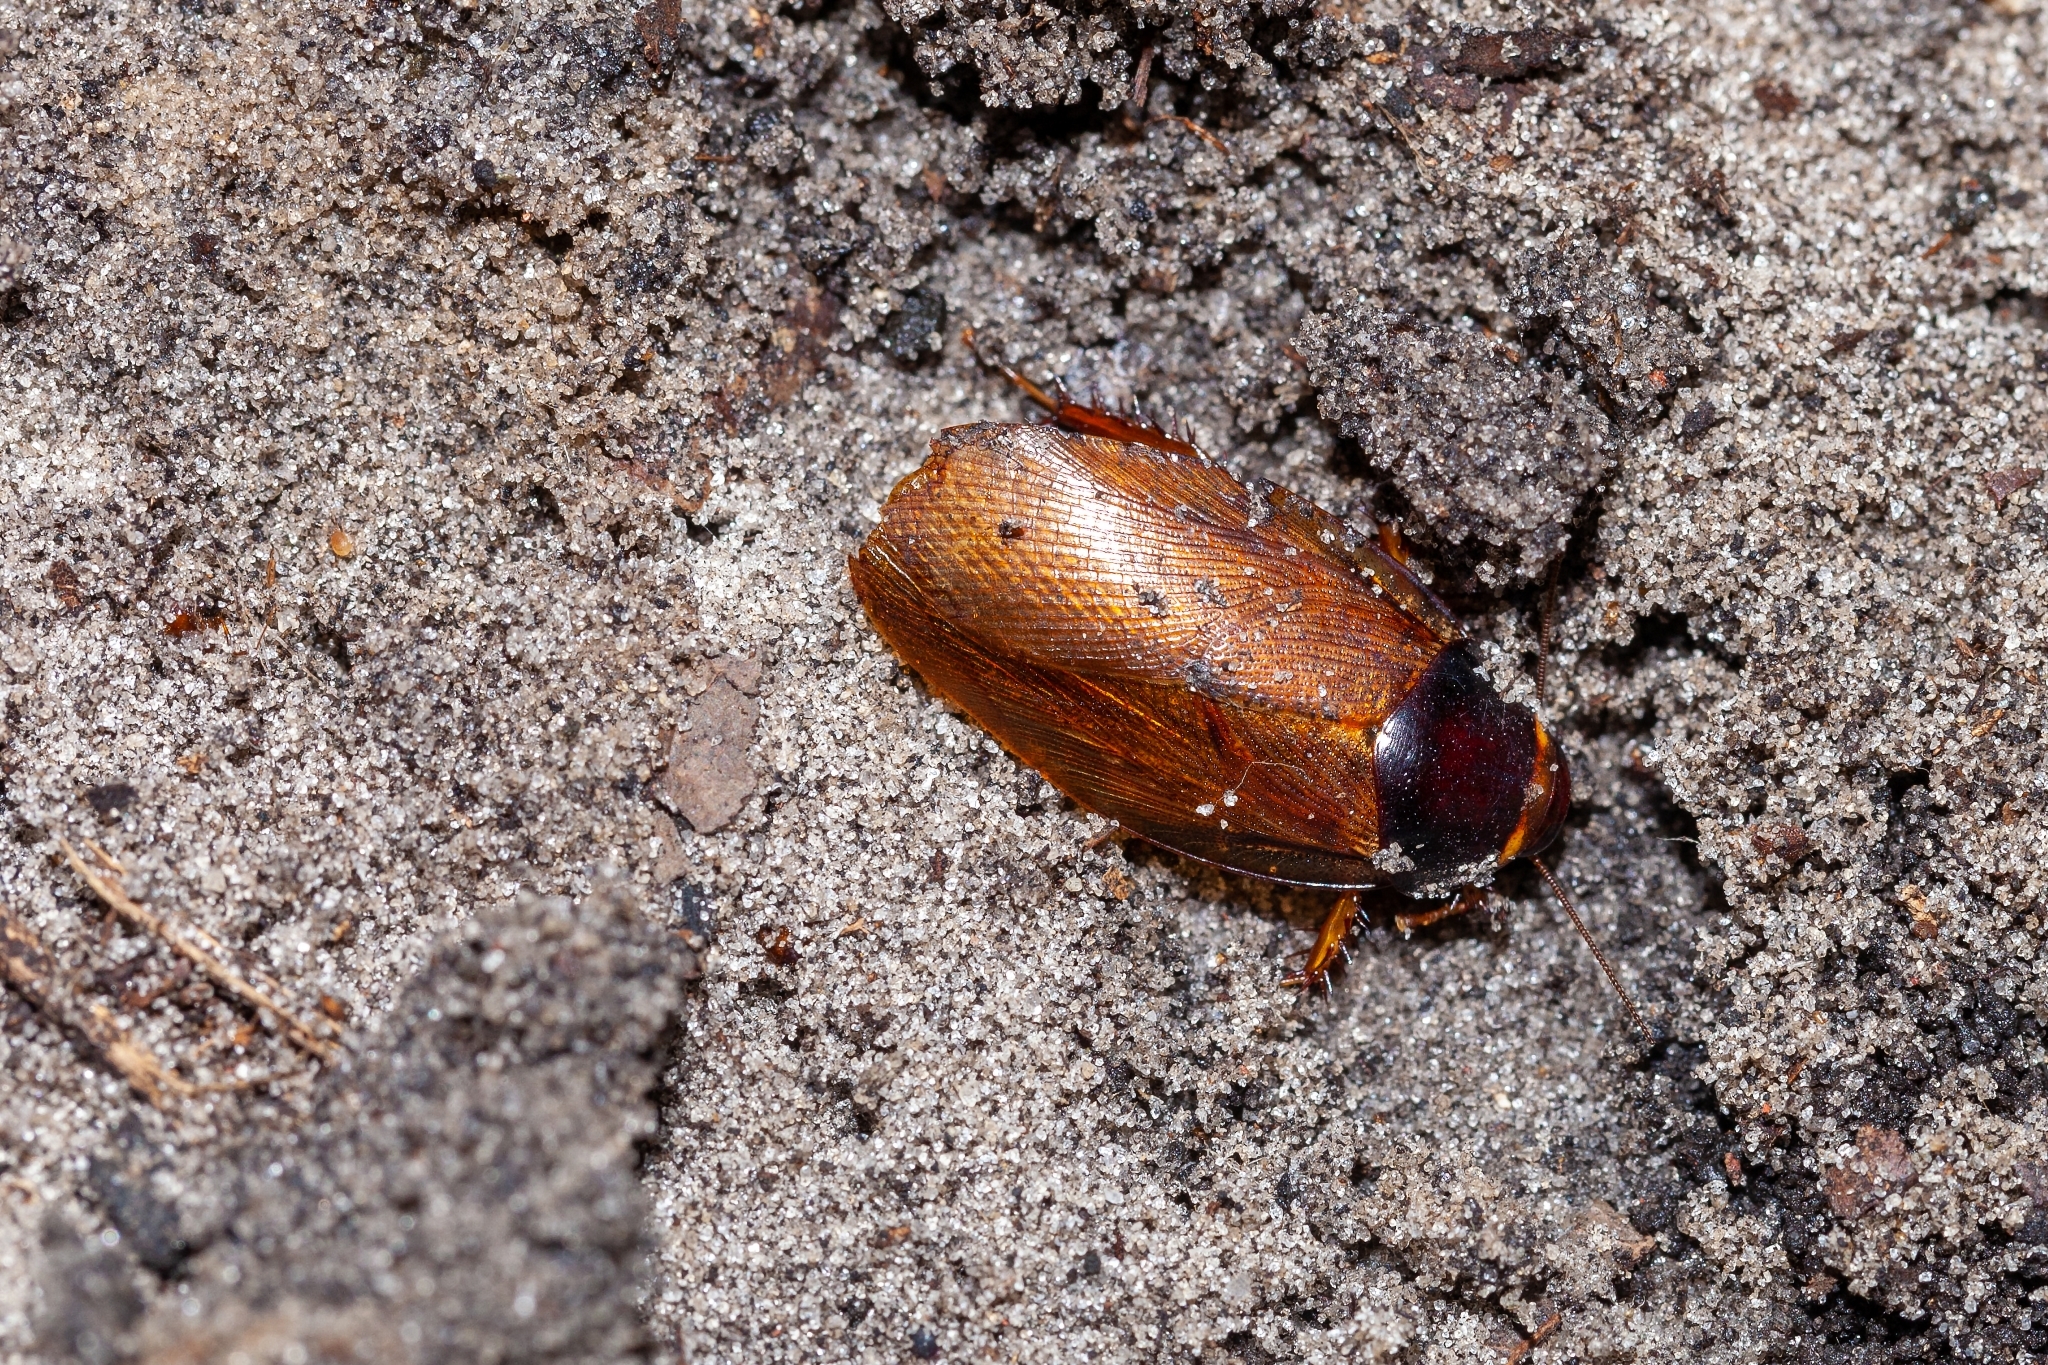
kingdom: Animalia
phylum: Arthropoda
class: Insecta
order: Blattodea
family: Blaberidae
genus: Pycnoscelus
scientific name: Pycnoscelus surinamensis
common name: Surinam cockroach
